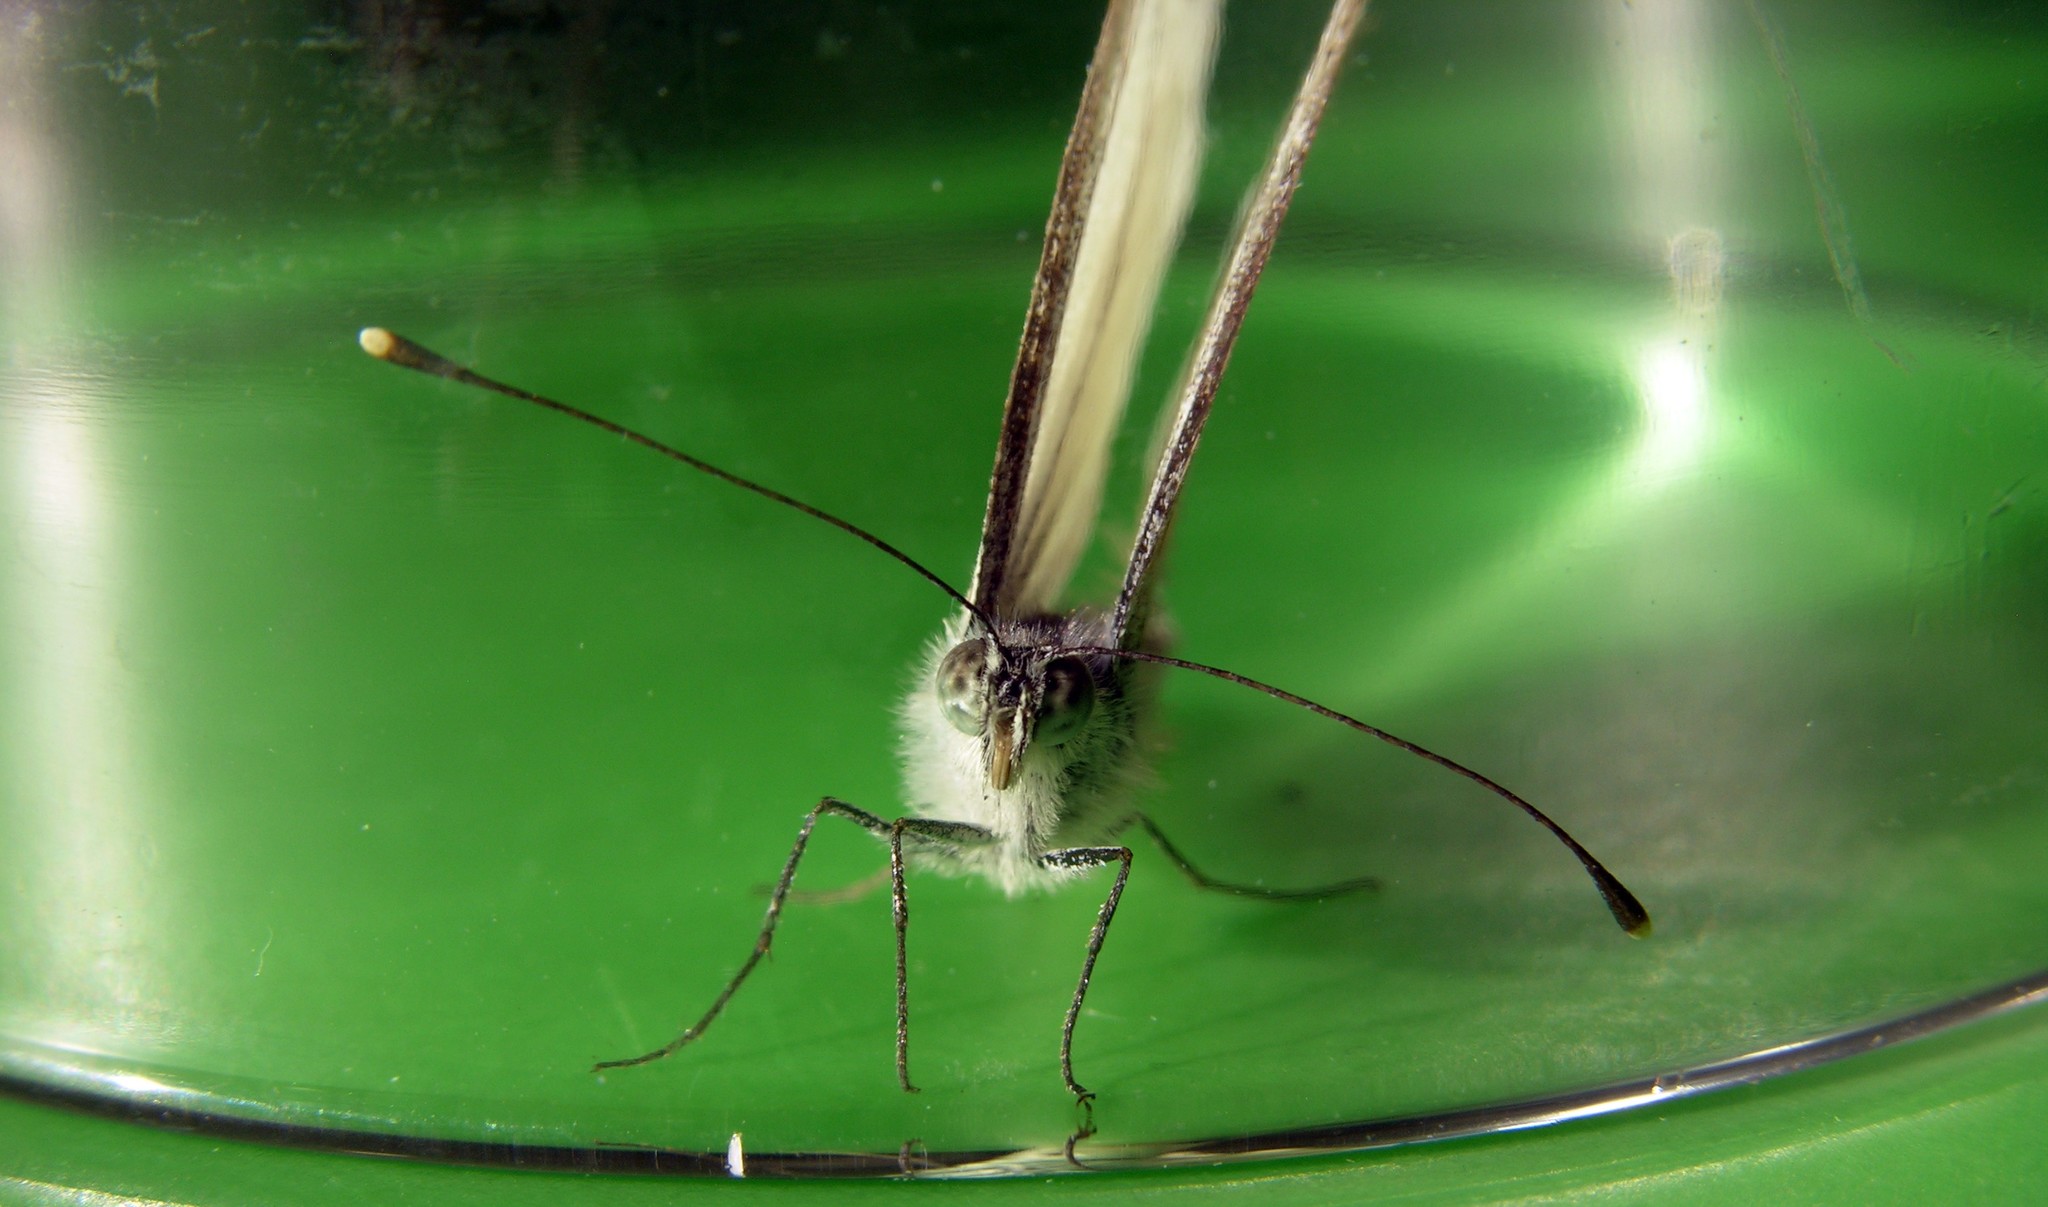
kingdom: Animalia
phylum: Arthropoda
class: Insecta
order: Lepidoptera
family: Pieridae
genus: Pieris
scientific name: Pieris napi
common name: Green-veined white
